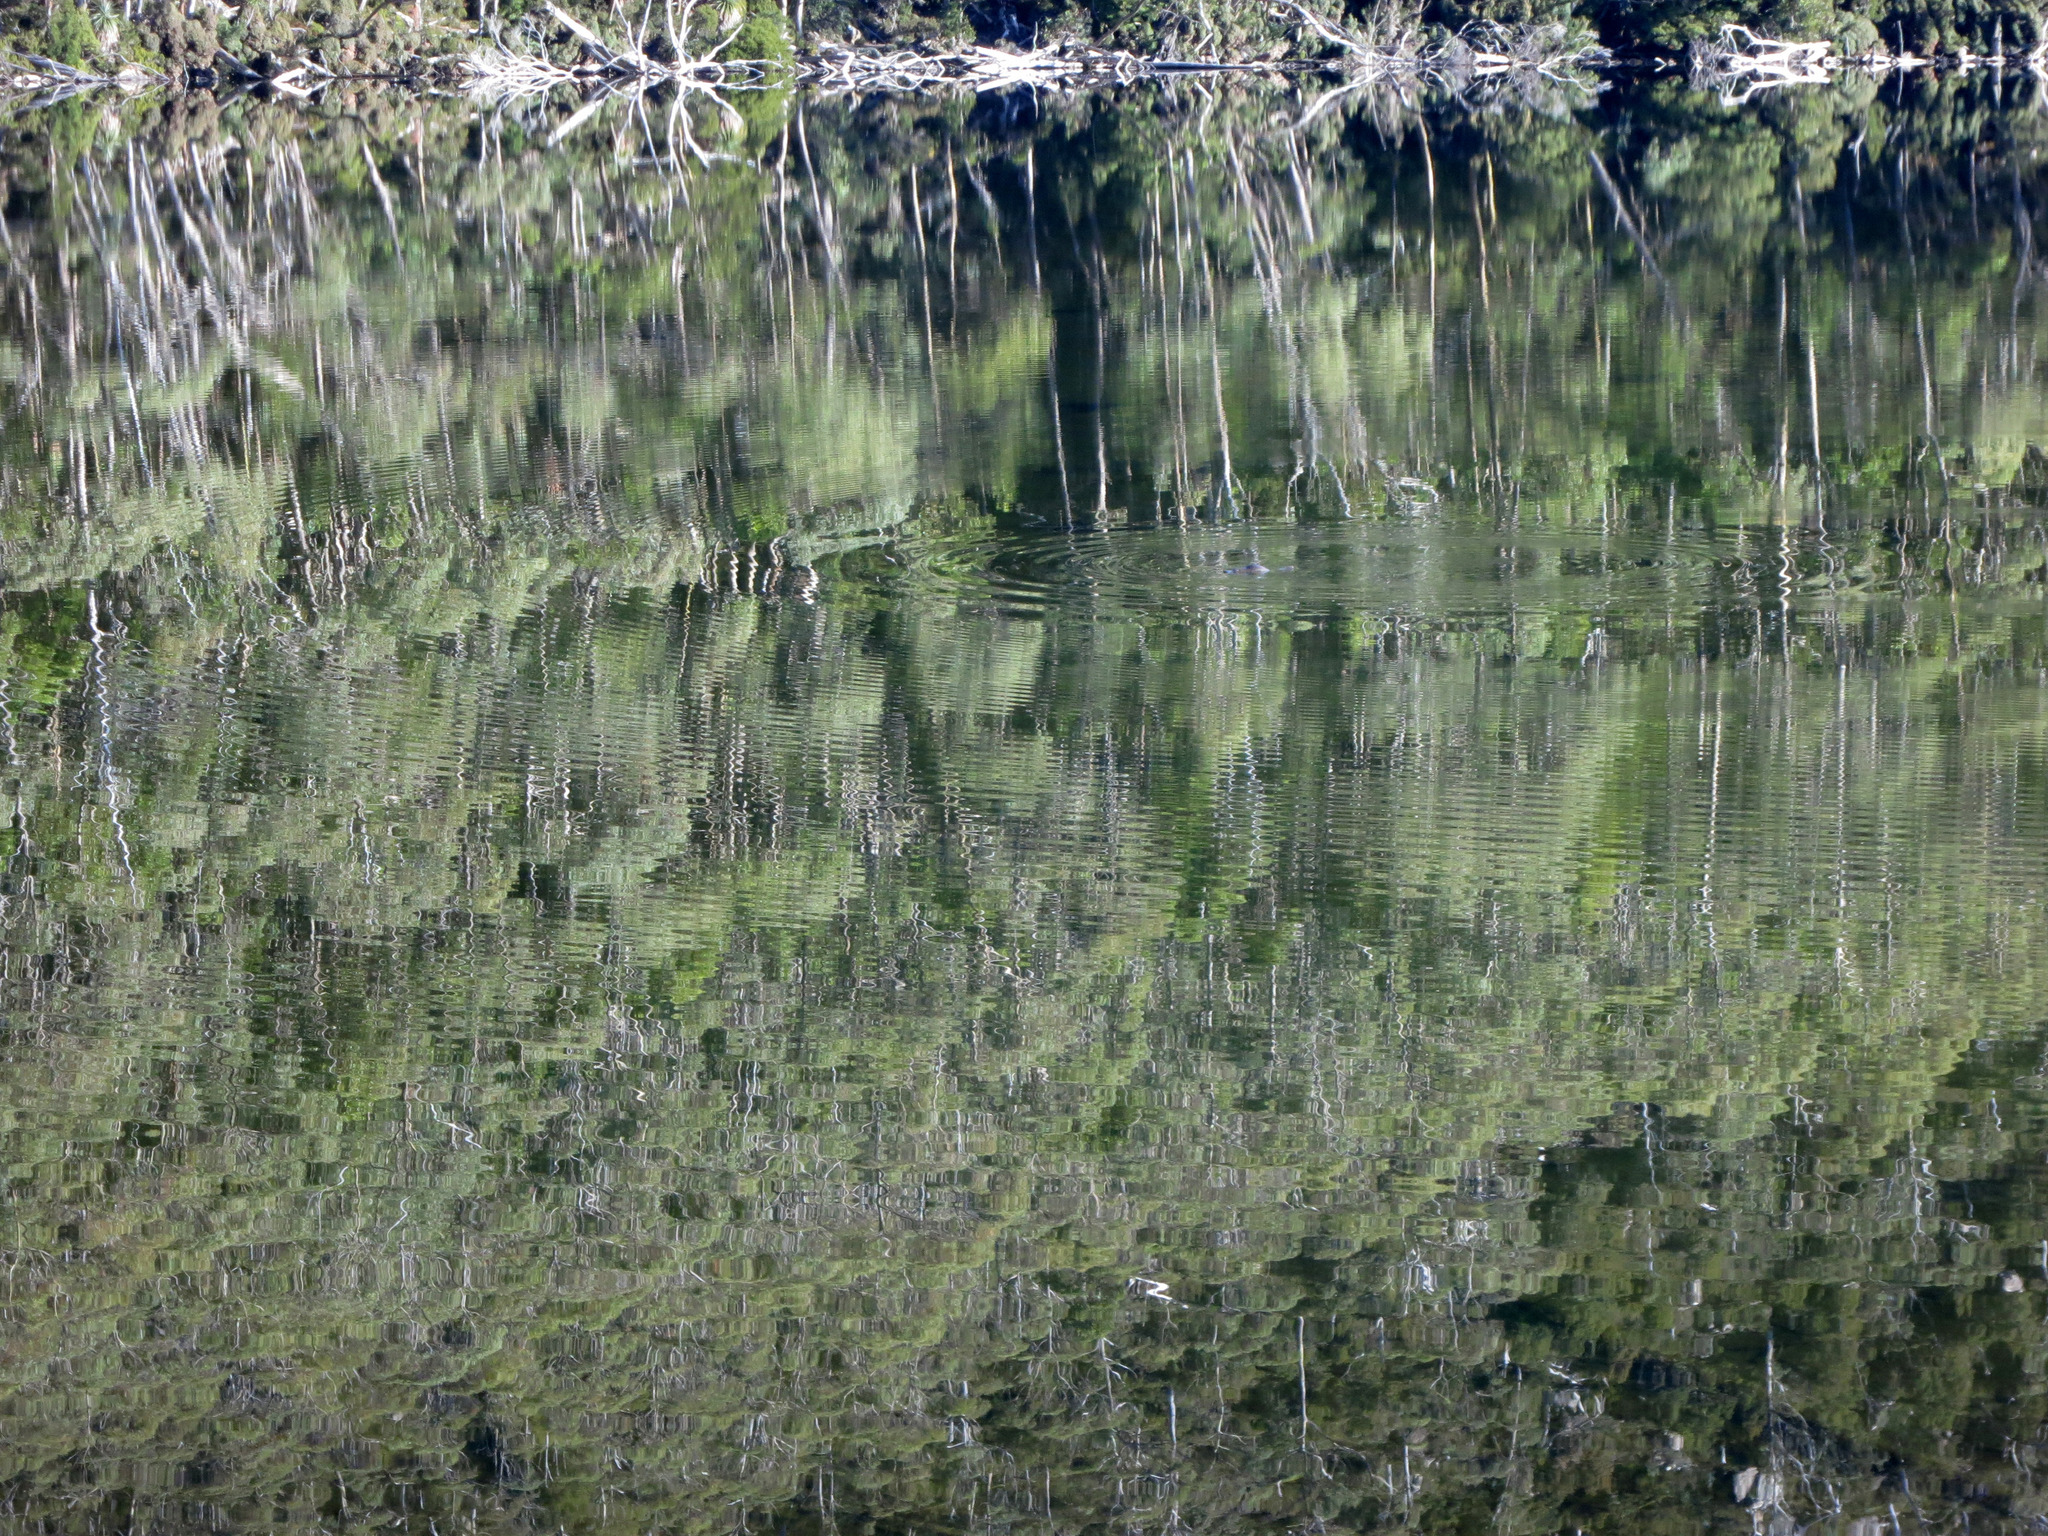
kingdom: Animalia
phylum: Chordata
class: Mammalia
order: Monotremata
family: Ornithorhynchidae
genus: Ornithorhynchus
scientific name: Ornithorhynchus anatinus
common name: Platypus
